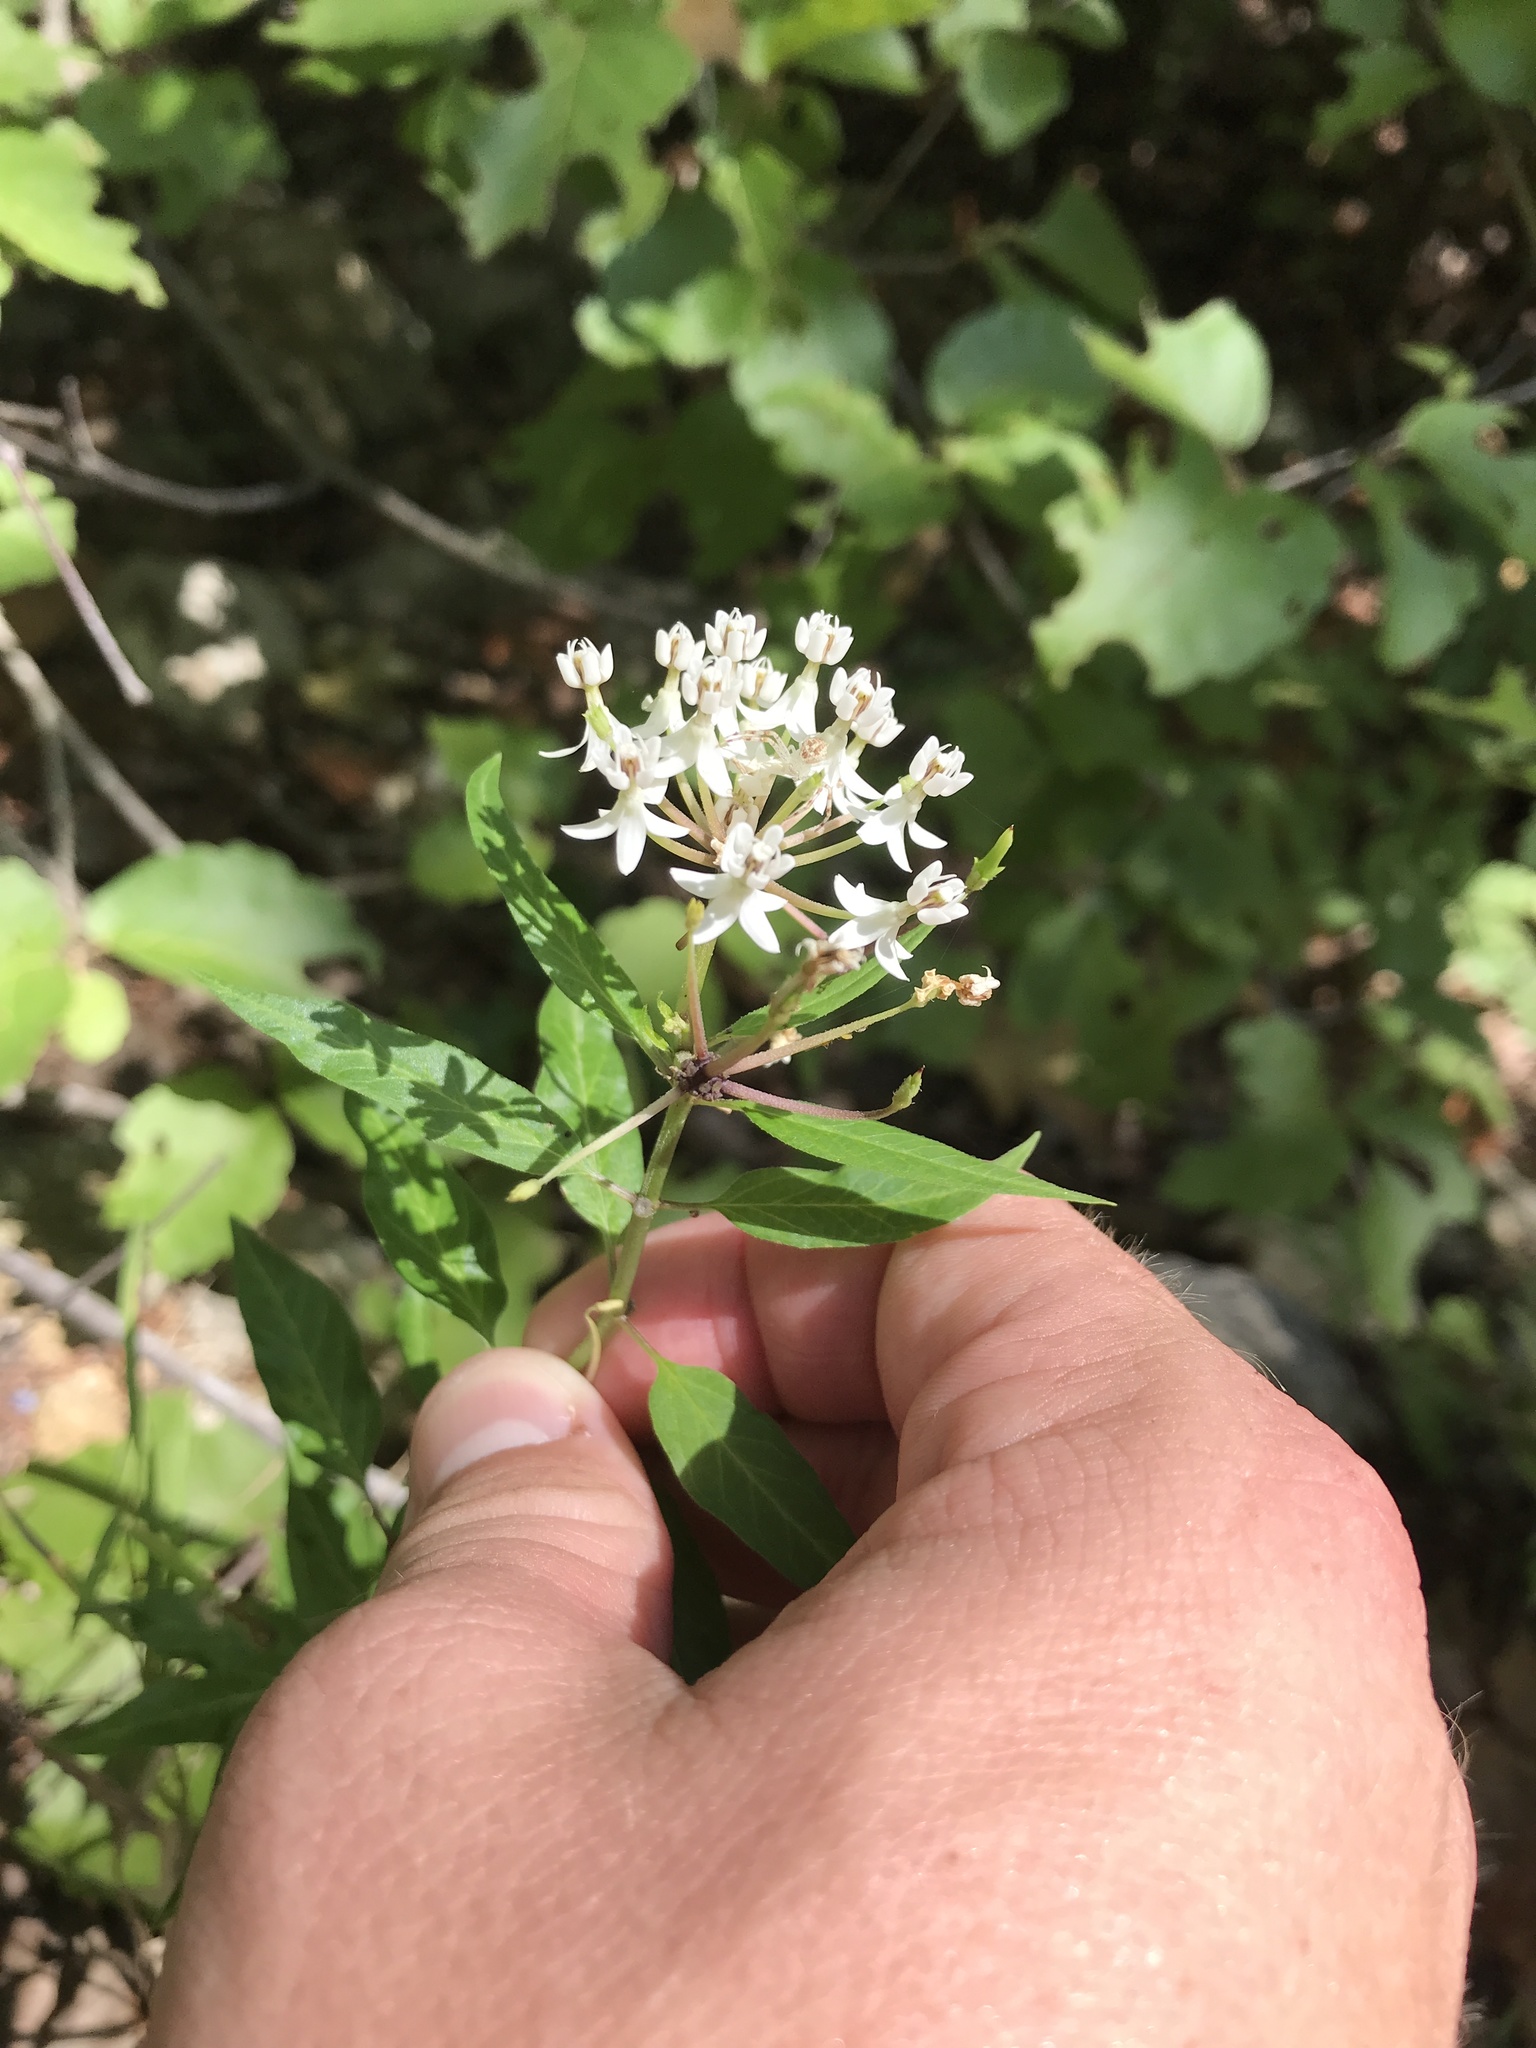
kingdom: Plantae
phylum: Tracheophyta
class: Magnoliopsida
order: Gentianales
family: Apocynaceae
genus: Asclepias
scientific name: Asclepias texana
